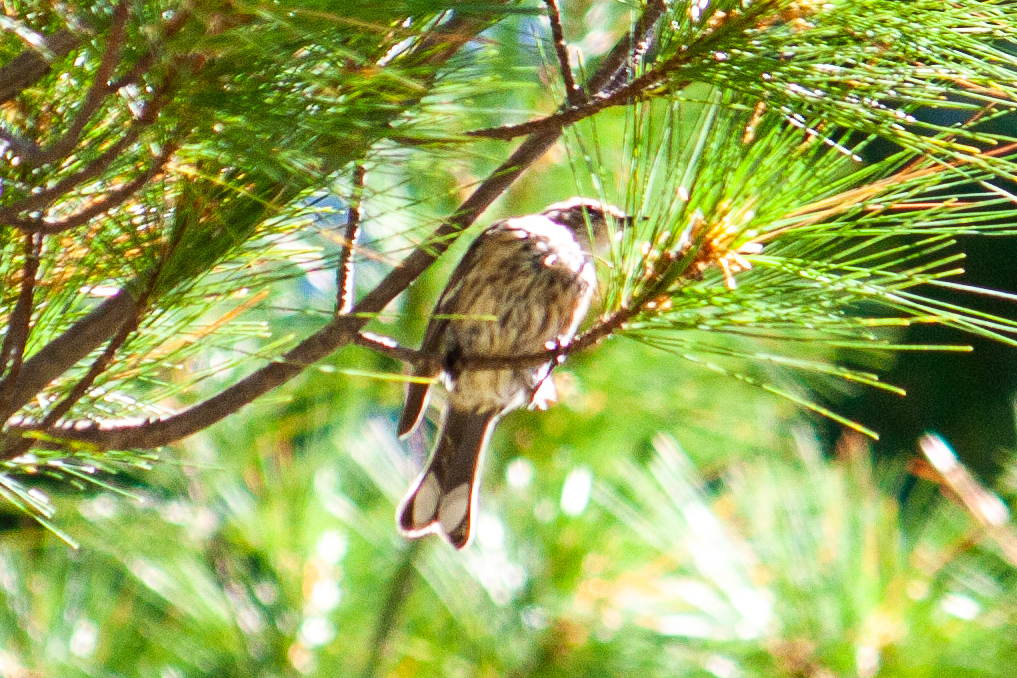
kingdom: Animalia
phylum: Chordata
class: Aves
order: Passeriformes
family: Parulidae
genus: Setophaga
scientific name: Setophaga coronata
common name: Myrtle warbler
